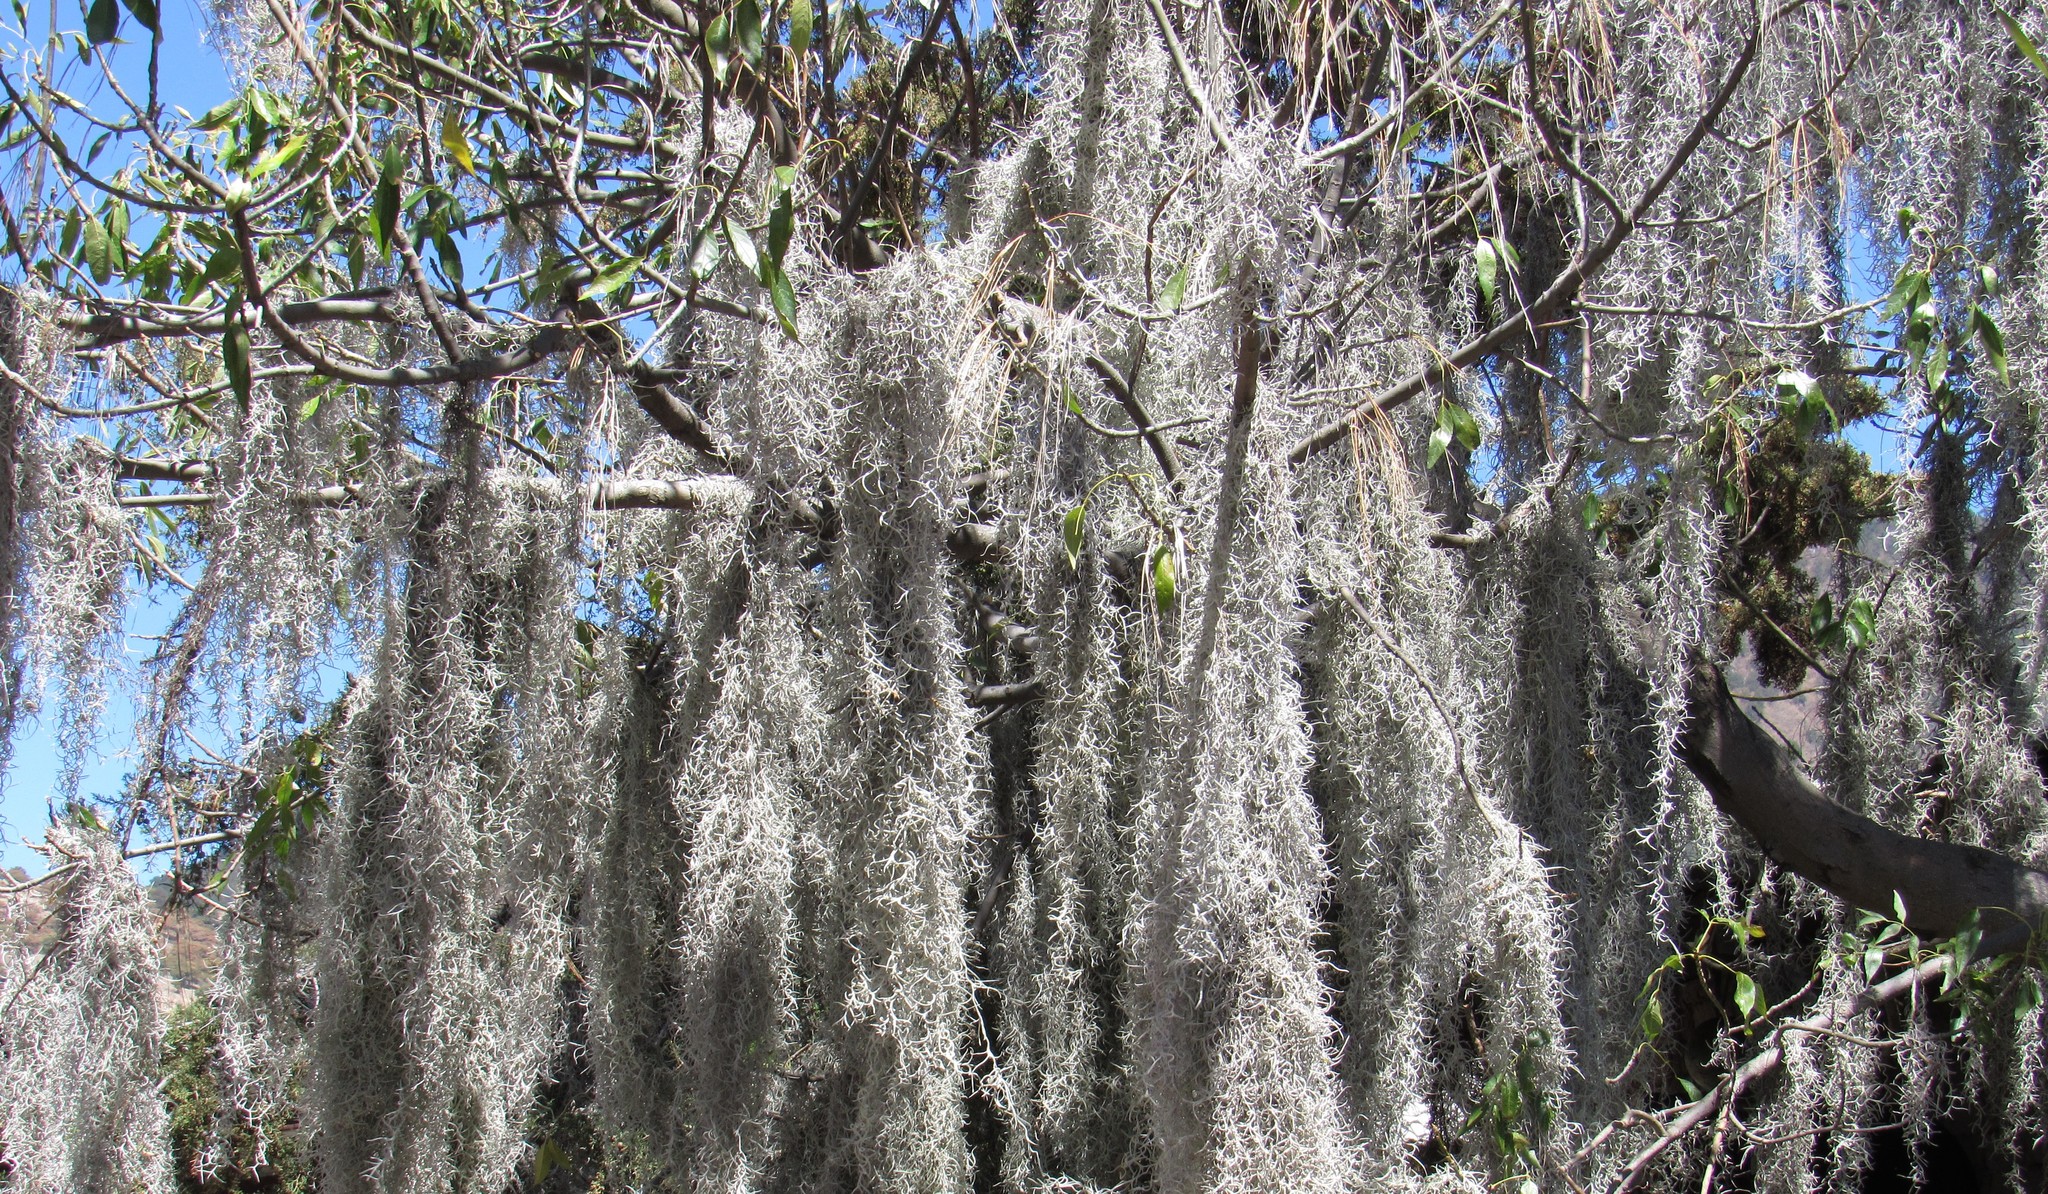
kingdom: Plantae
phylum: Tracheophyta
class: Liliopsida
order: Poales
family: Bromeliaceae
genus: Tillandsia
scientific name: Tillandsia usneoides
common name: Spanish moss
